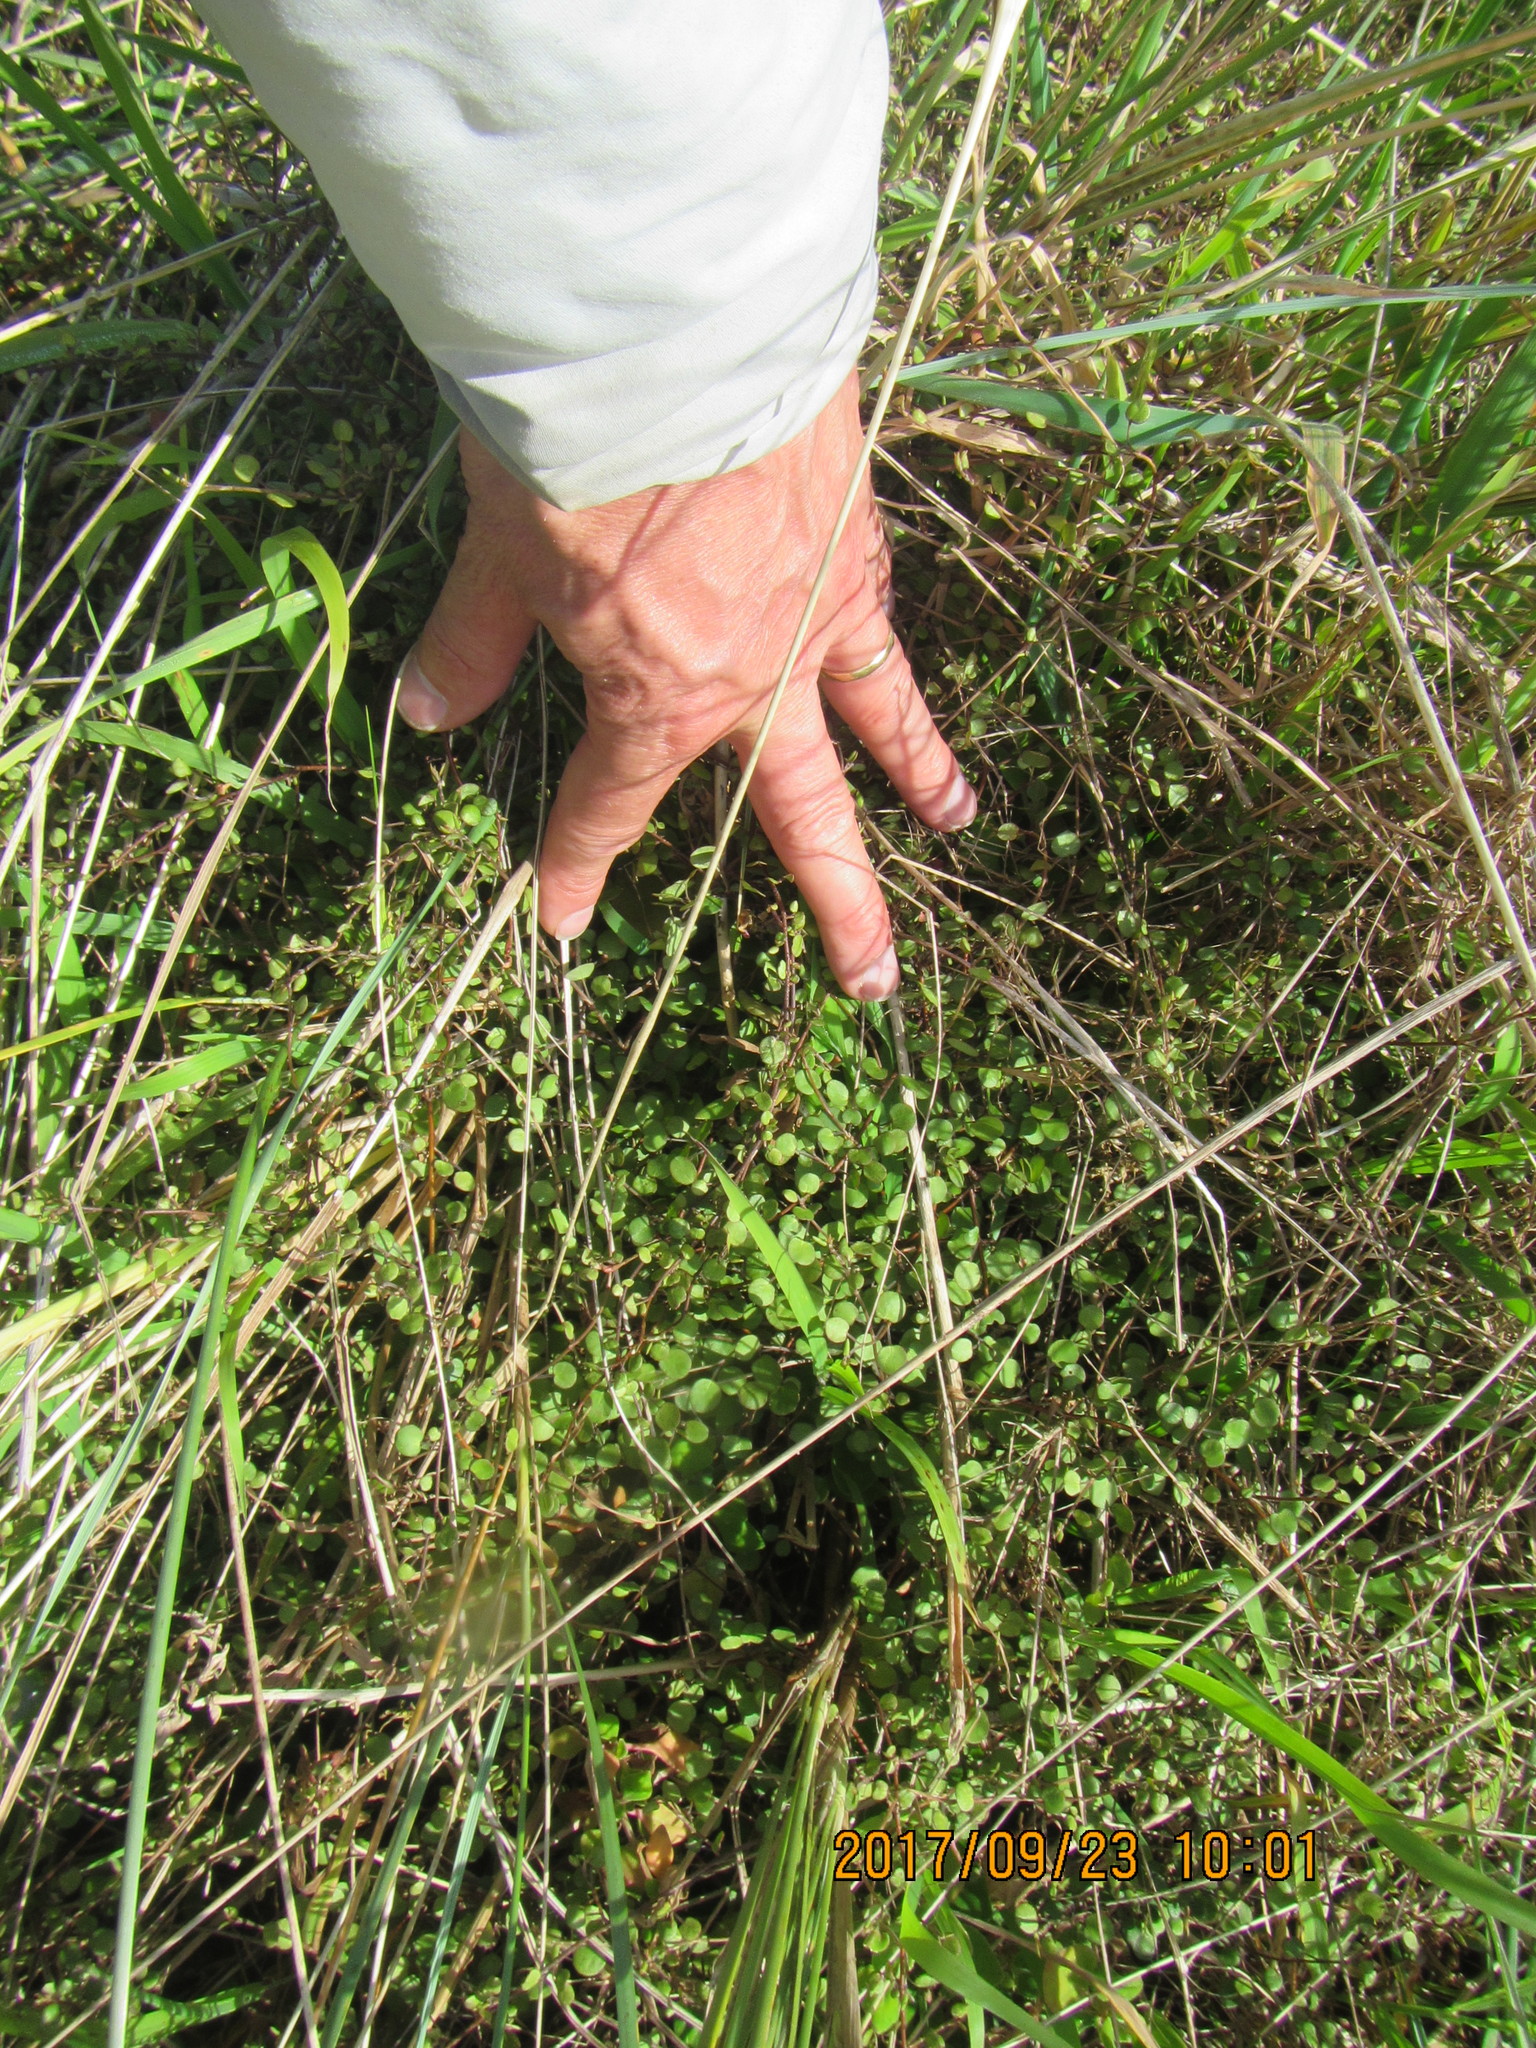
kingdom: Plantae
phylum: Tracheophyta
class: Magnoliopsida
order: Caryophyllales
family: Polygonaceae
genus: Muehlenbeckia
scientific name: Muehlenbeckia complexa
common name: Wireplant
